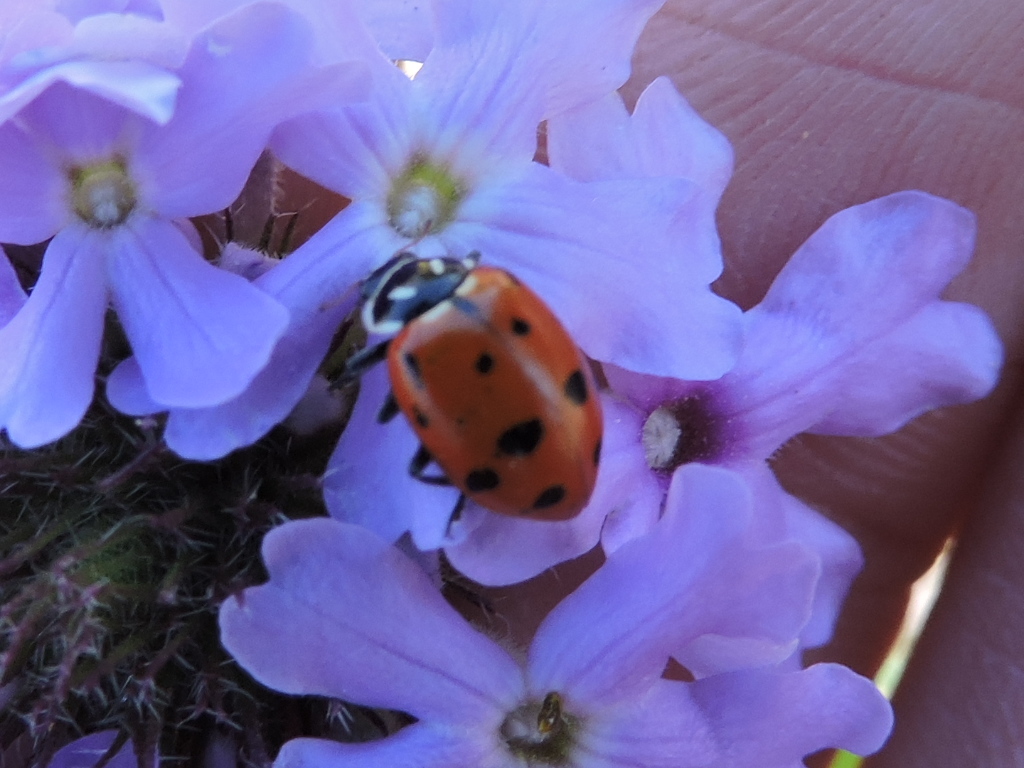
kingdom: Animalia
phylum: Arthropoda
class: Insecta
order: Coleoptera
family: Coccinellidae
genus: Hippodamia
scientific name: Hippodamia convergens
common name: Convergent lady beetle
